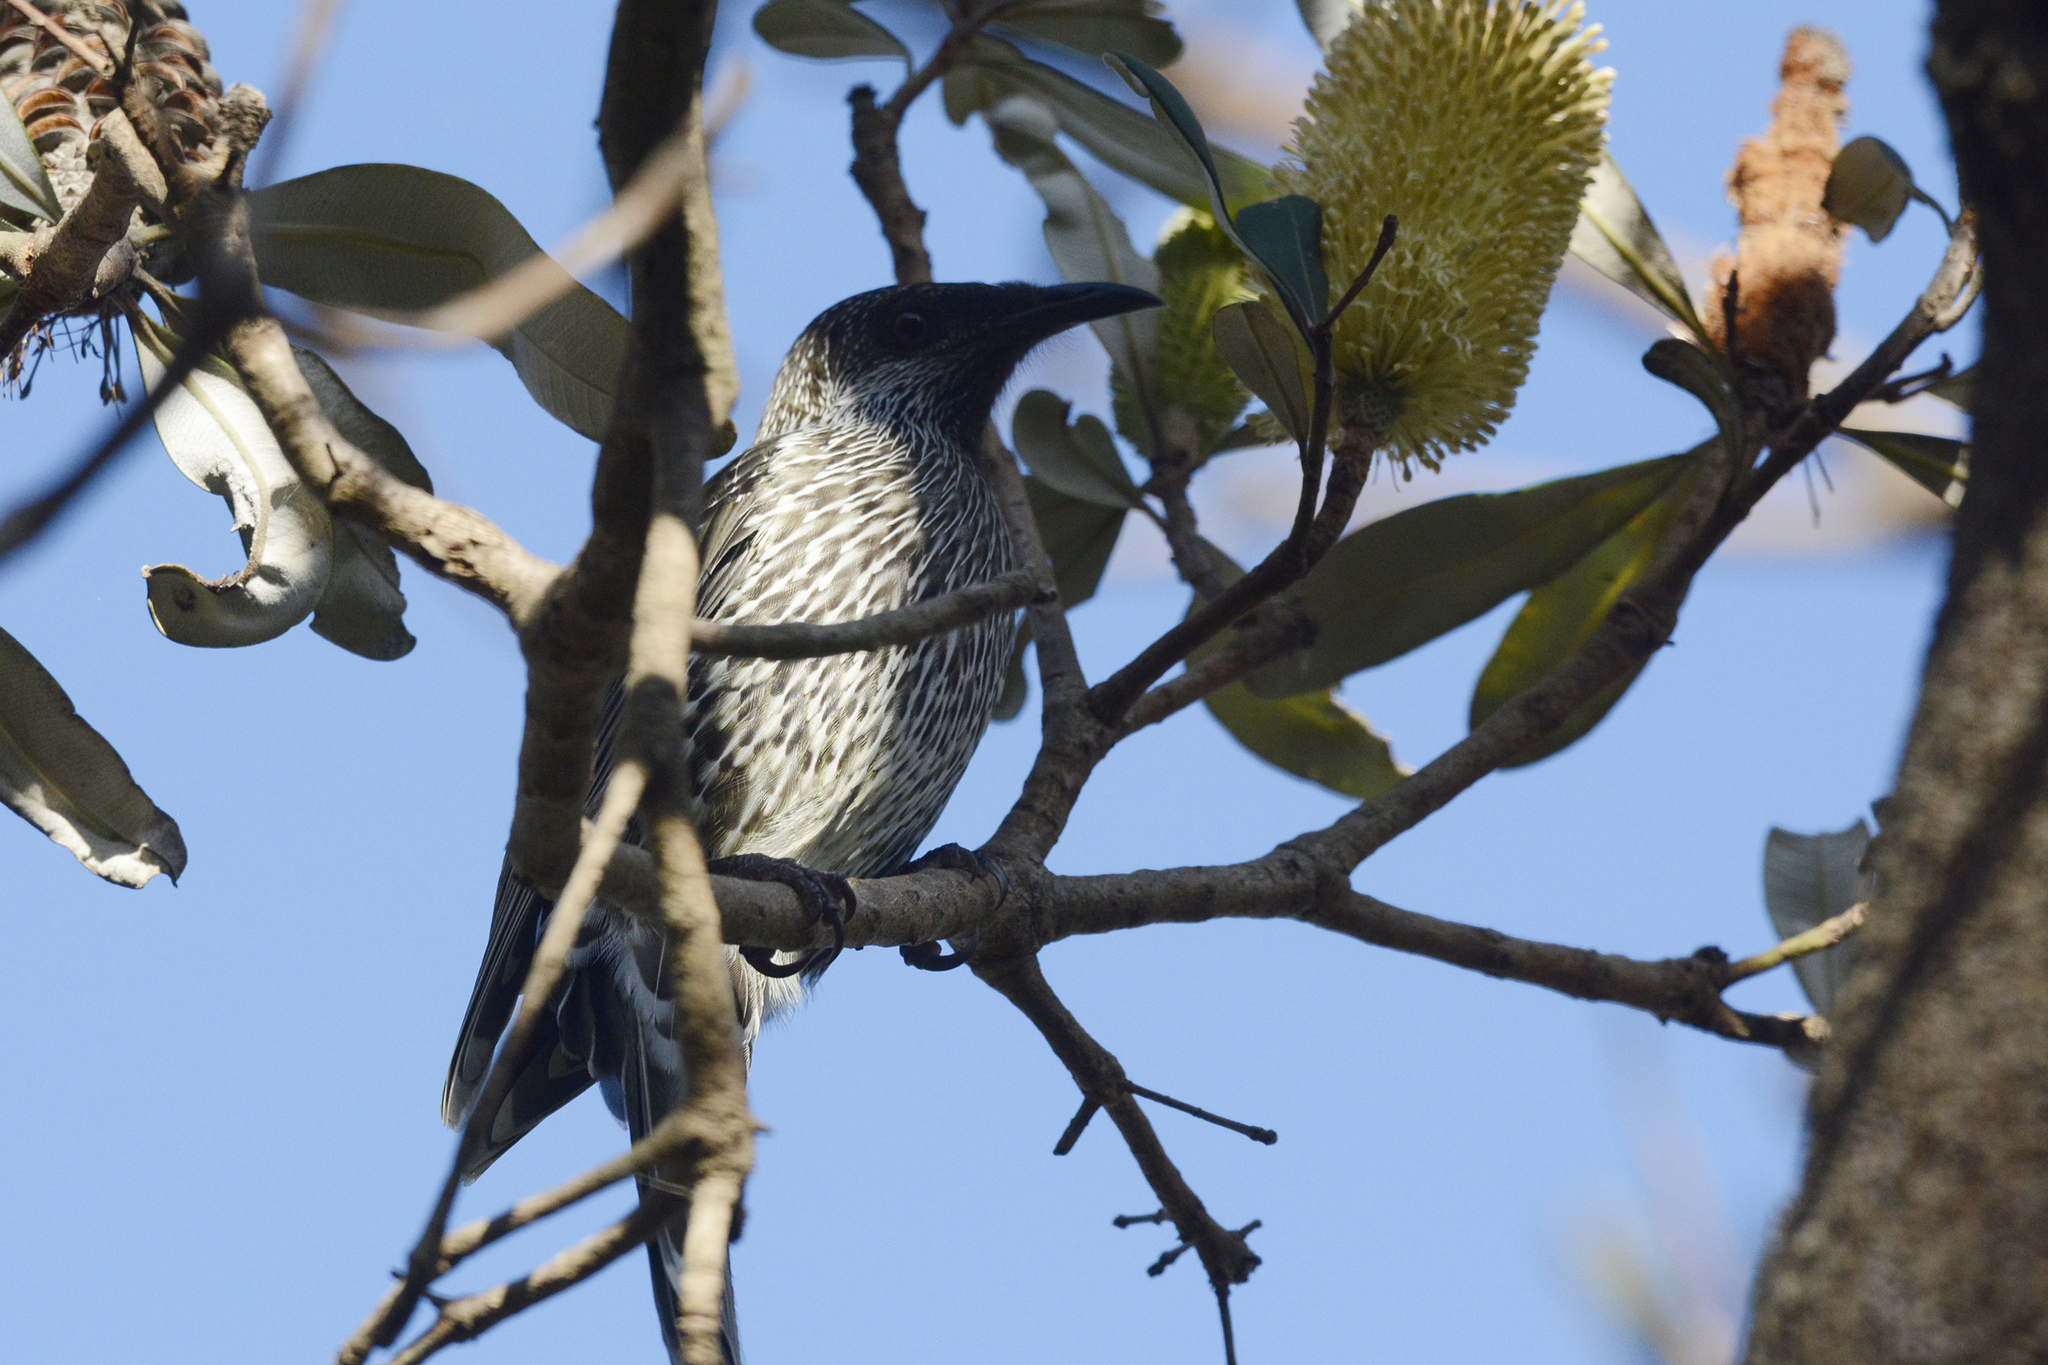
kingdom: Animalia
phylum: Chordata
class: Aves
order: Passeriformes
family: Meliphagidae
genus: Anthochaera
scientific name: Anthochaera chrysoptera
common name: Little wattlebird
